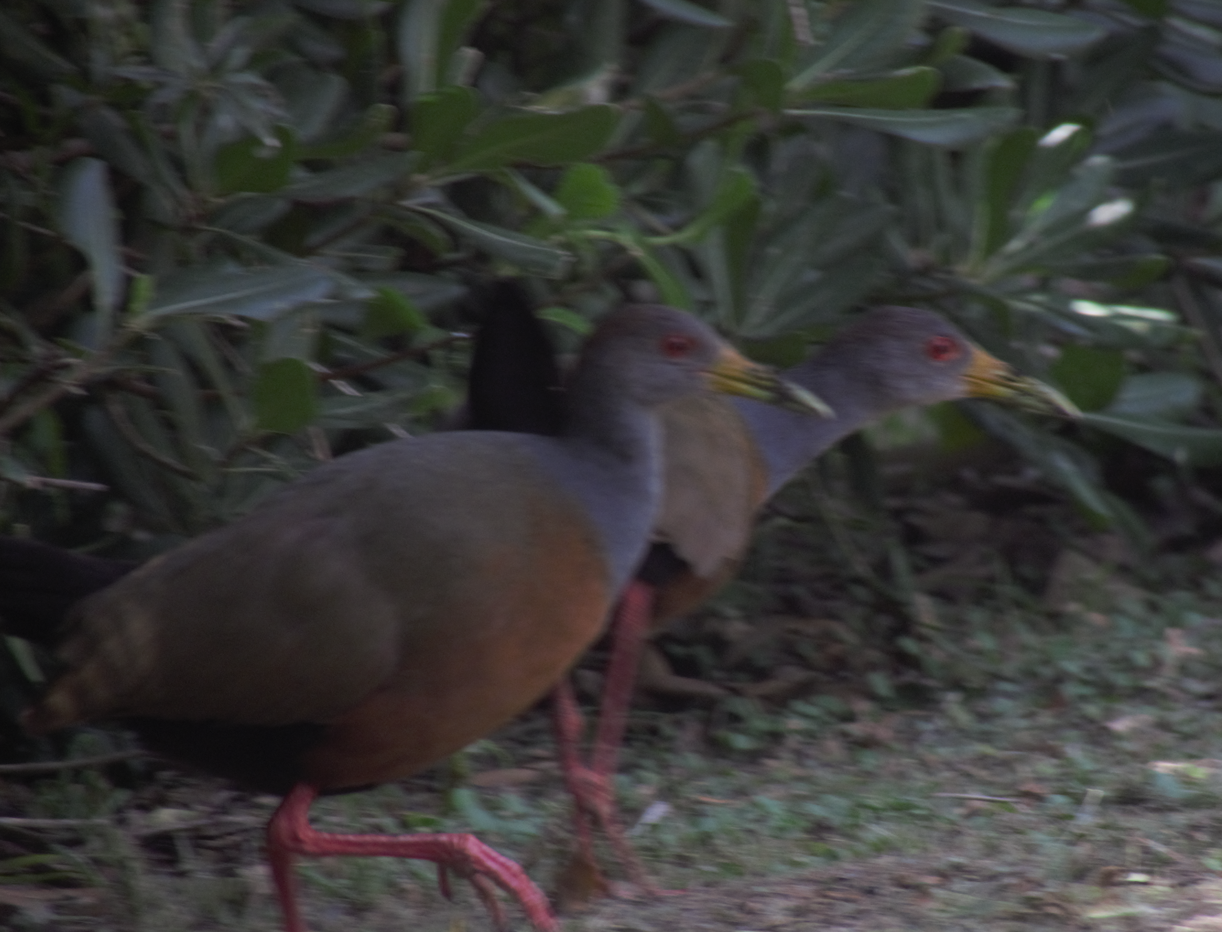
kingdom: Animalia
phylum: Chordata
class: Aves
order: Gruiformes
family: Rallidae
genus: Aramides
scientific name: Aramides cajanea
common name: Gray-necked wood-rail
